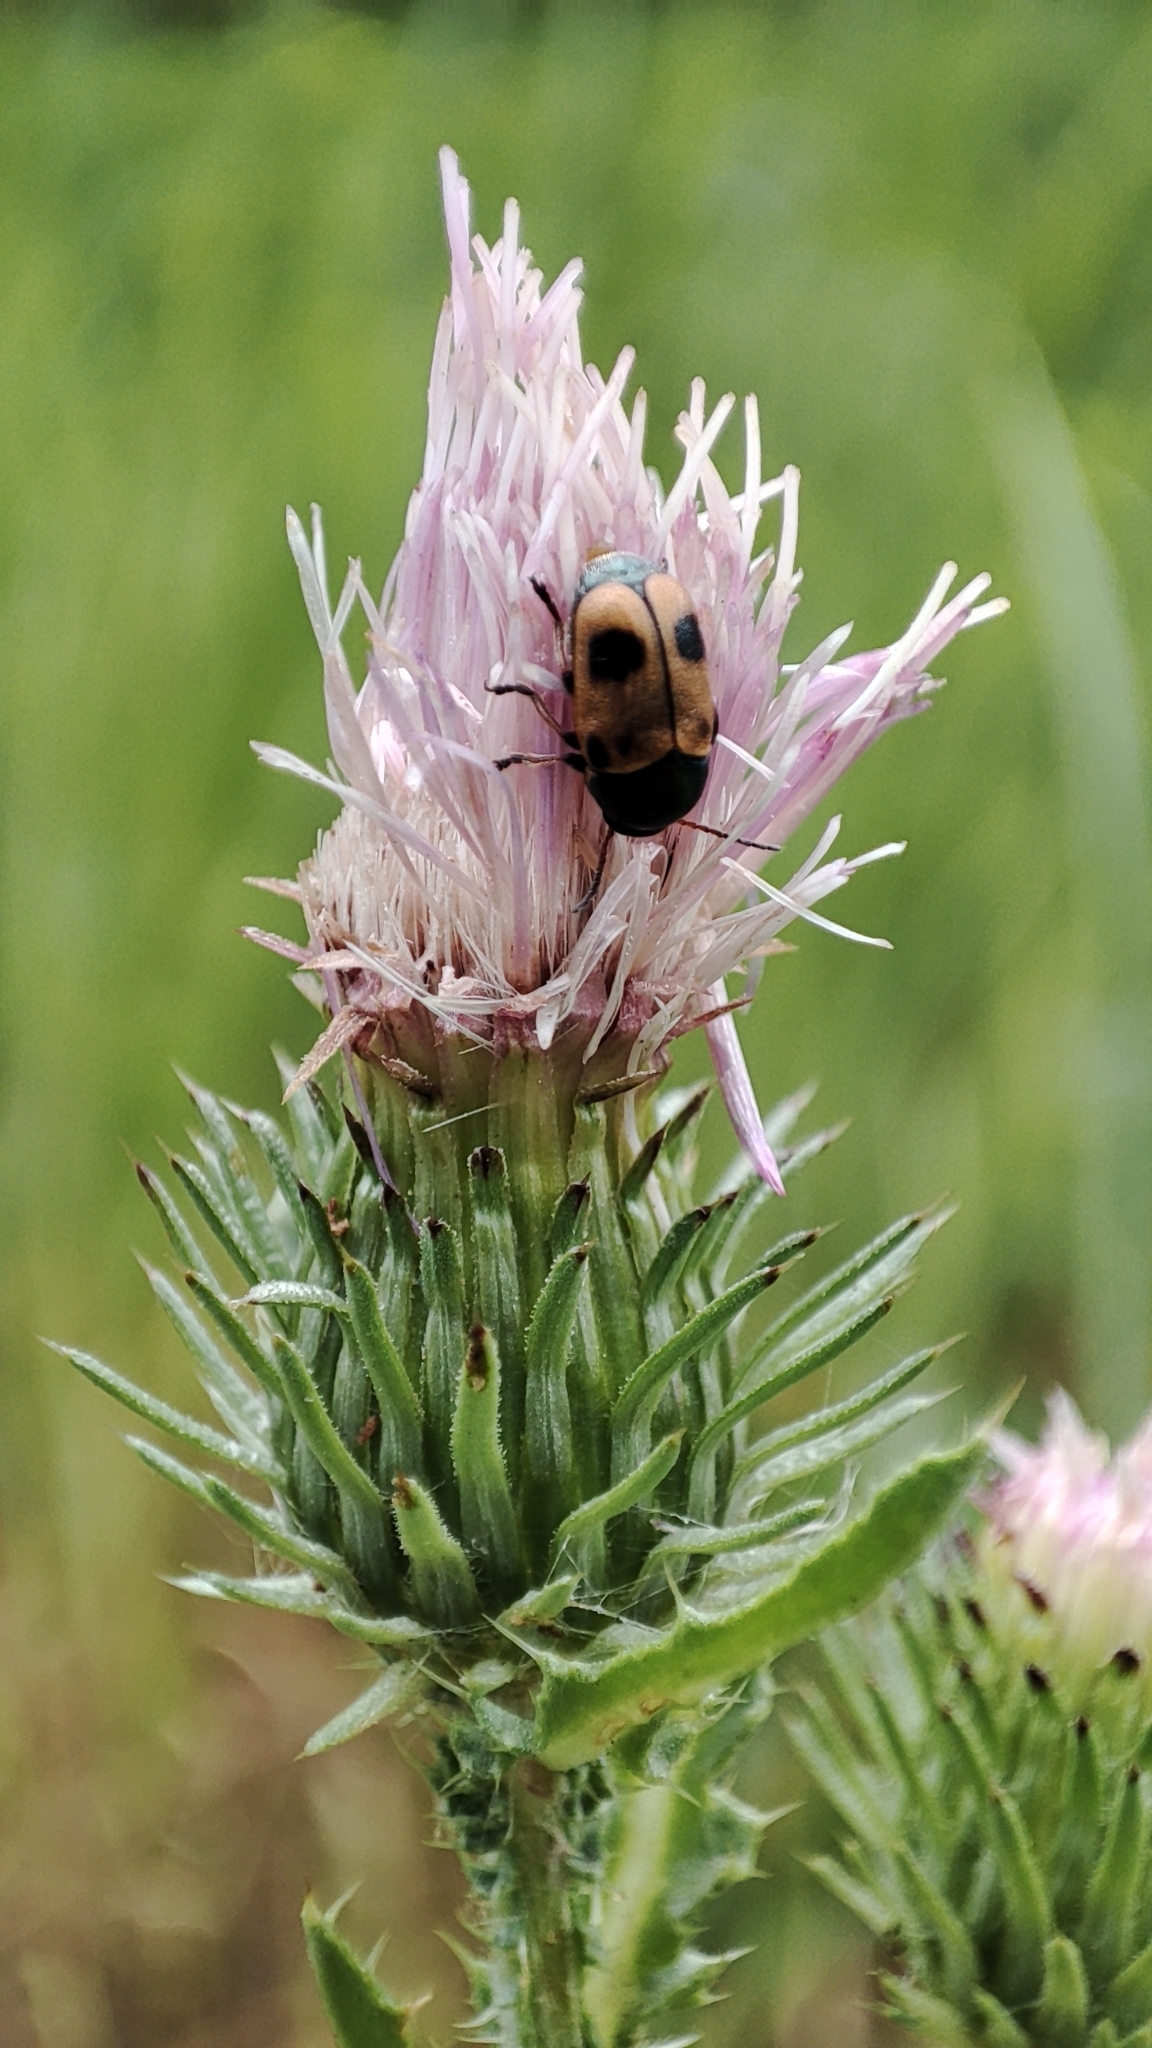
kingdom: Animalia
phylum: Arthropoda
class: Insecta
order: Coleoptera
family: Chrysomelidae
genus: Chiridopsis
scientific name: Chiridopsis bipunctata
